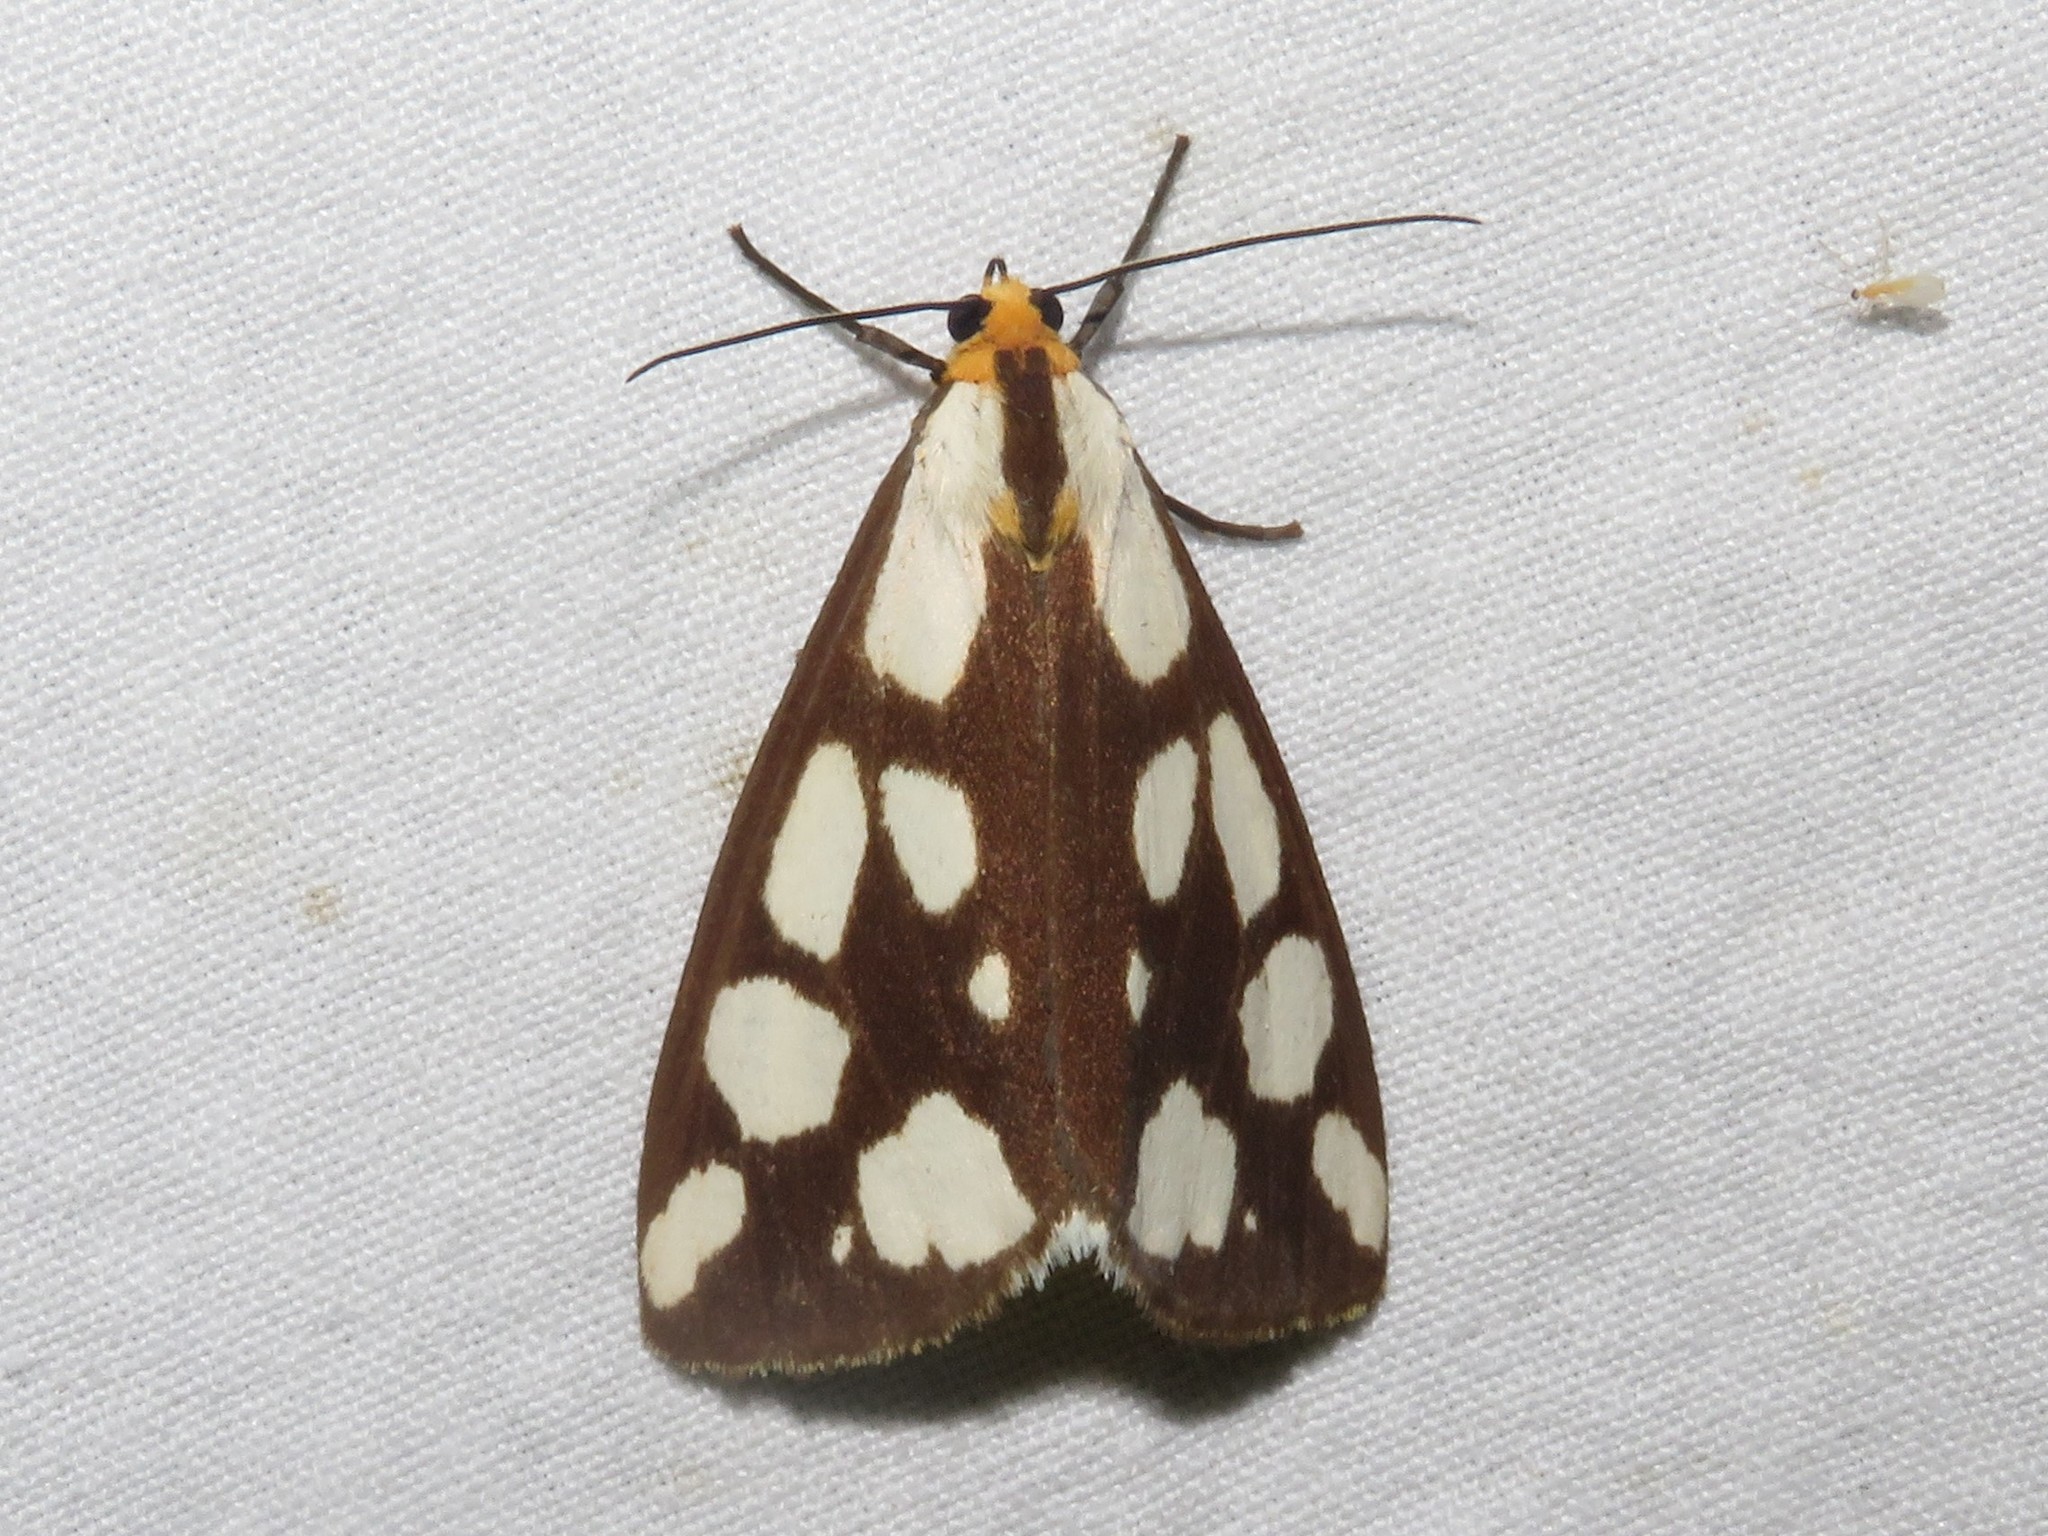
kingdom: Animalia
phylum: Arthropoda
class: Insecta
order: Lepidoptera
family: Erebidae
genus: Haploa
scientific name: Haploa confusa
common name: Confused haploa moth
